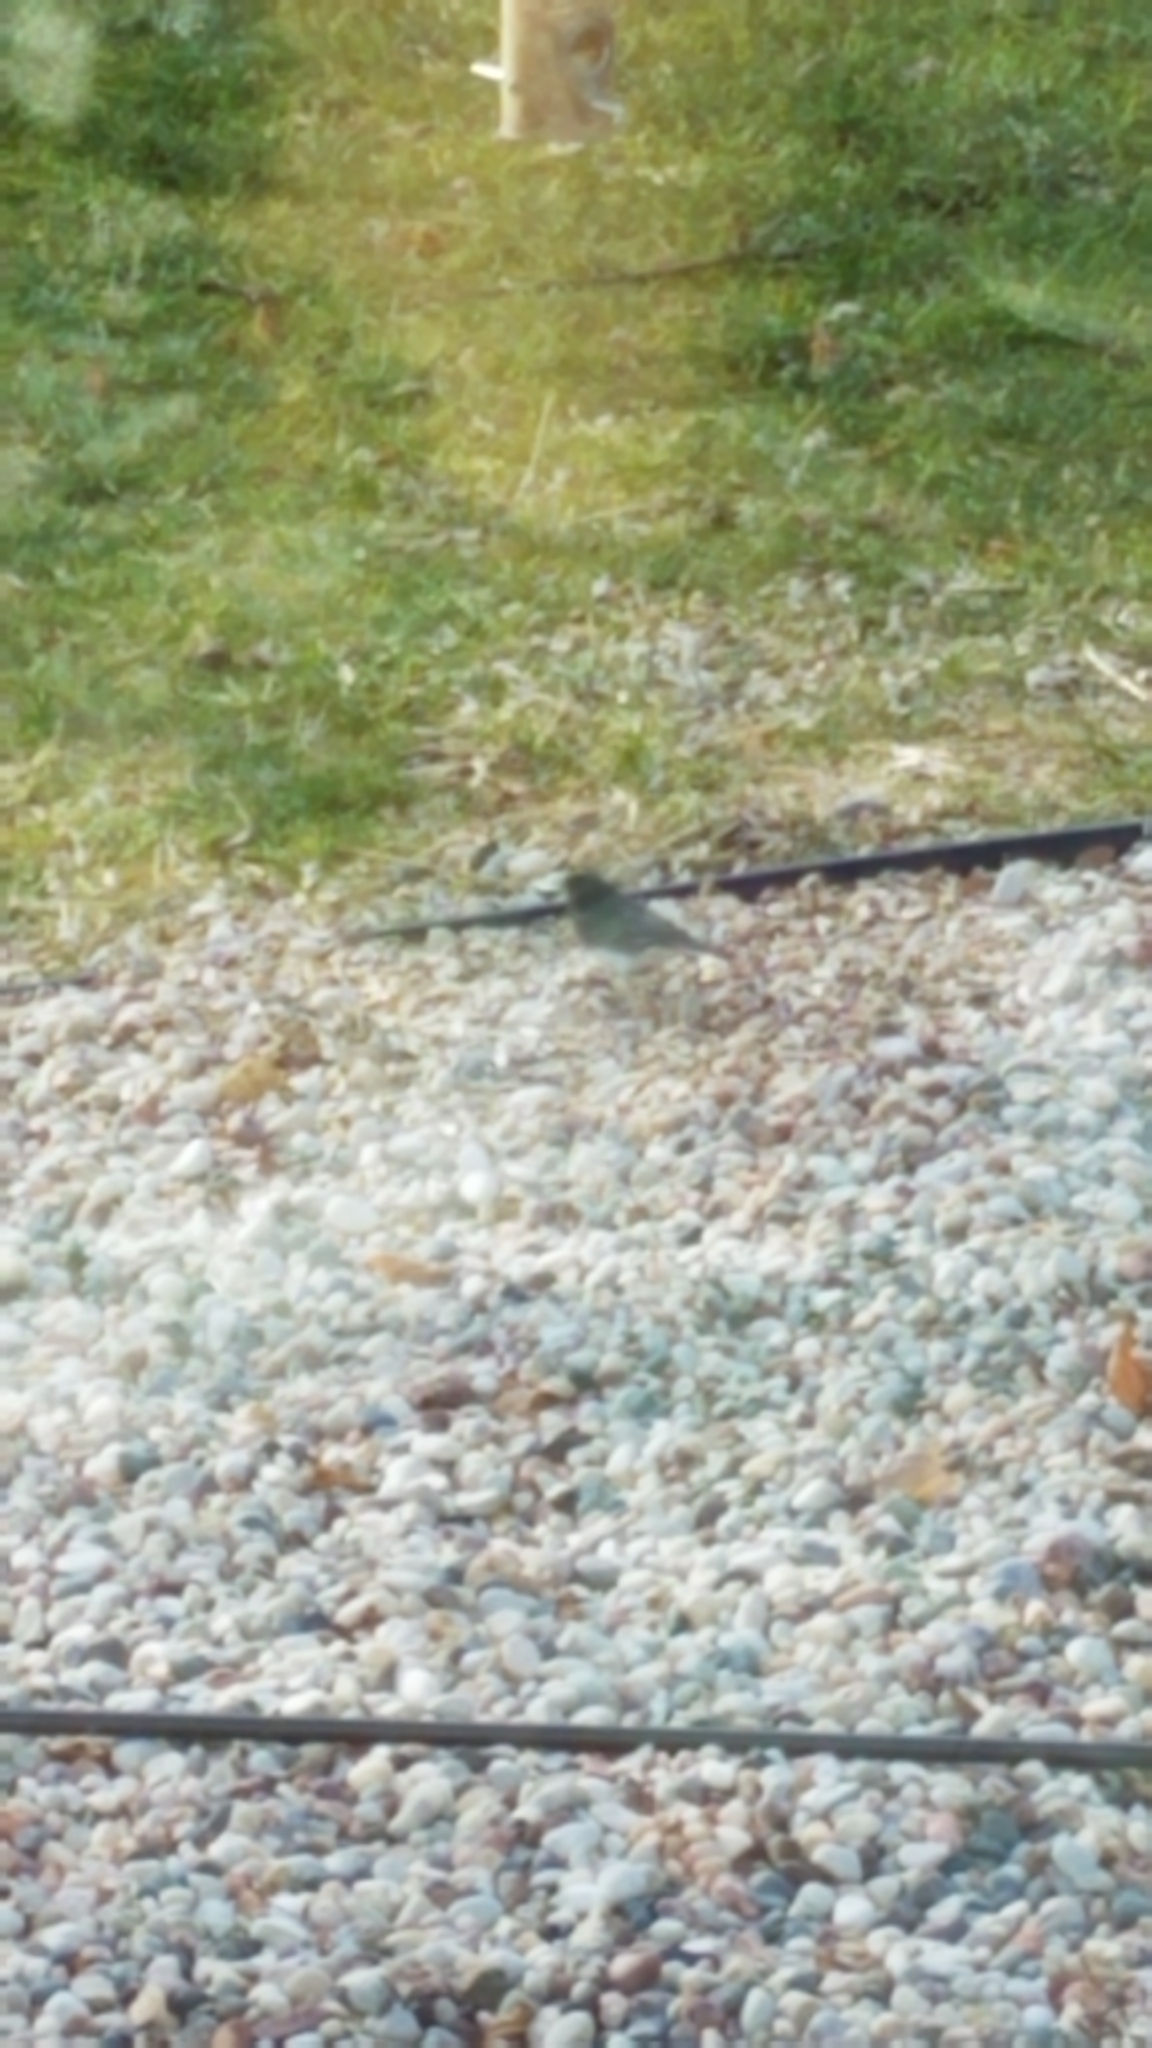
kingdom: Animalia
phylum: Chordata
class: Aves
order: Passeriformes
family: Passerellidae
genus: Junco
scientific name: Junco hyemalis
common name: Dark-eyed junco
